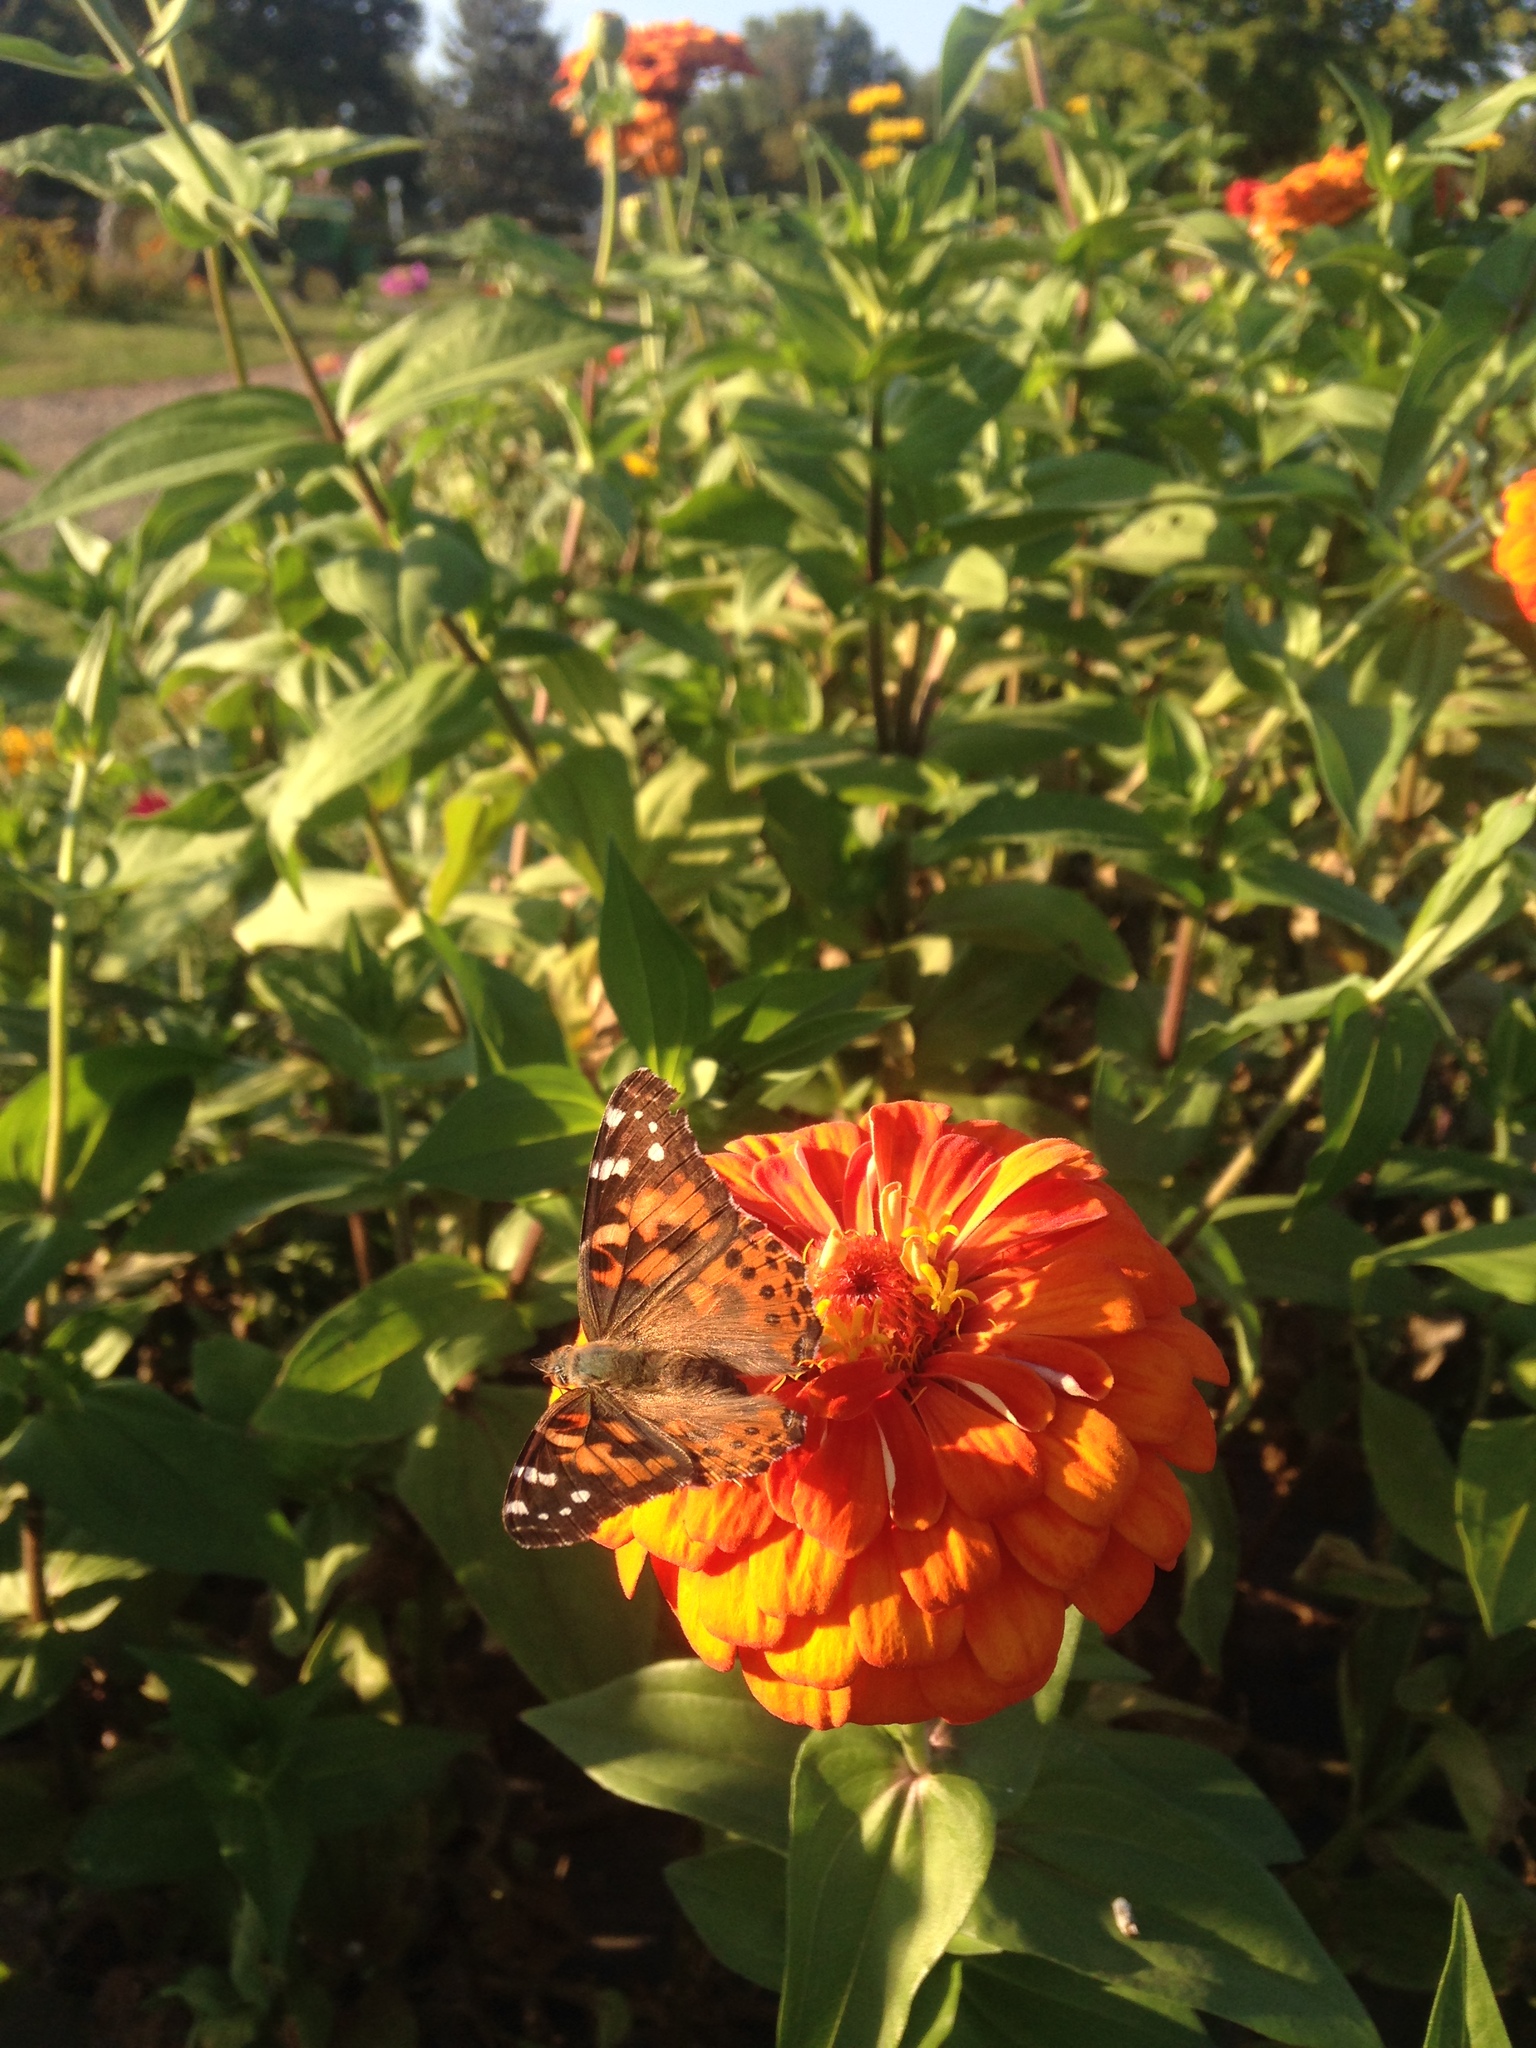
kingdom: Animalia
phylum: Arthropoda
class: Insecta
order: Lepidoptera
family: Nymphalidae
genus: Vanessa
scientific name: Vanessa cardui
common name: Painted lady
